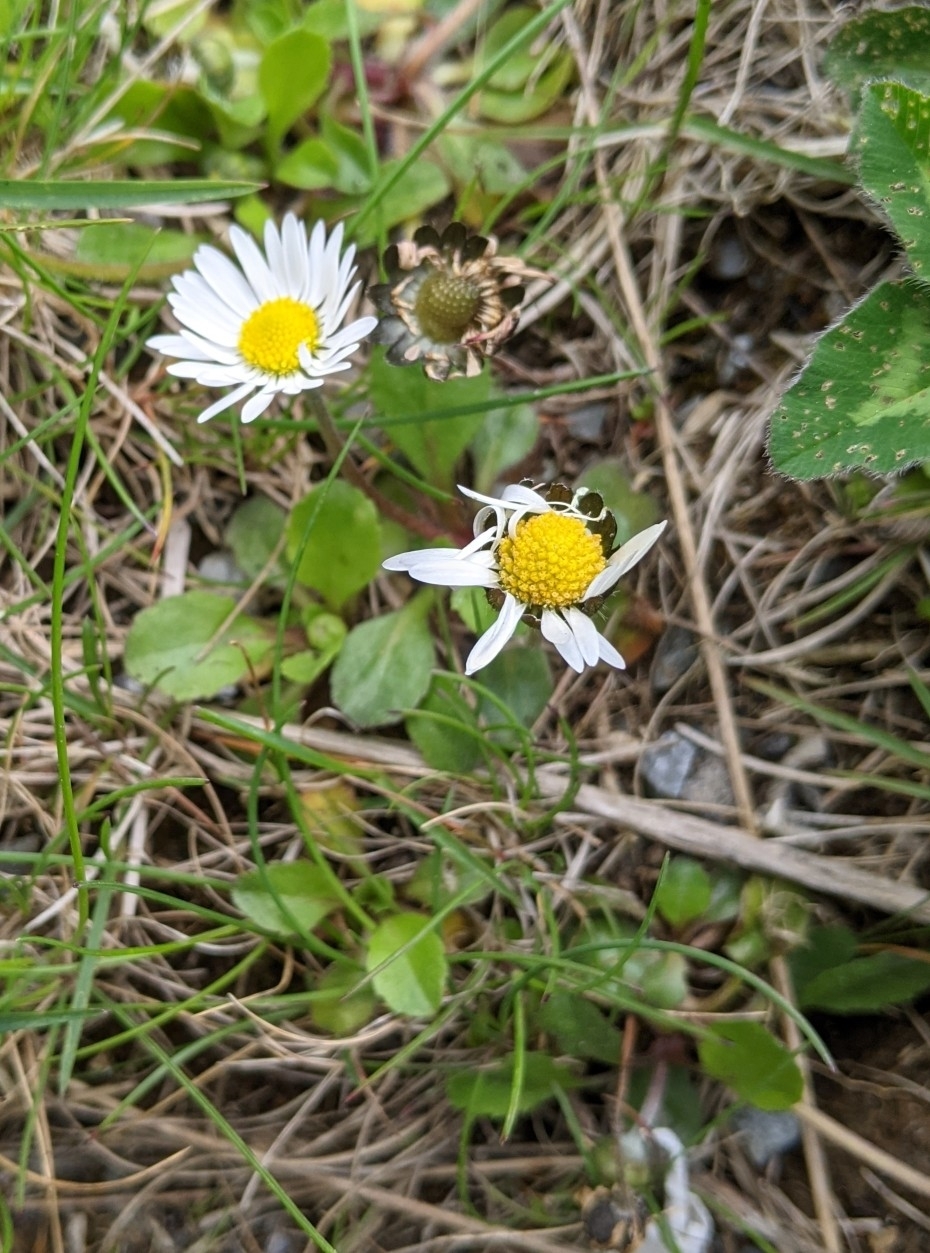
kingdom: Plantae
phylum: Tracheophyta
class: Magnoliopsida
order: Asterales
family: Asteraceae
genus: Bellis
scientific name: Bellis perennis
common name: Lawndaisy
